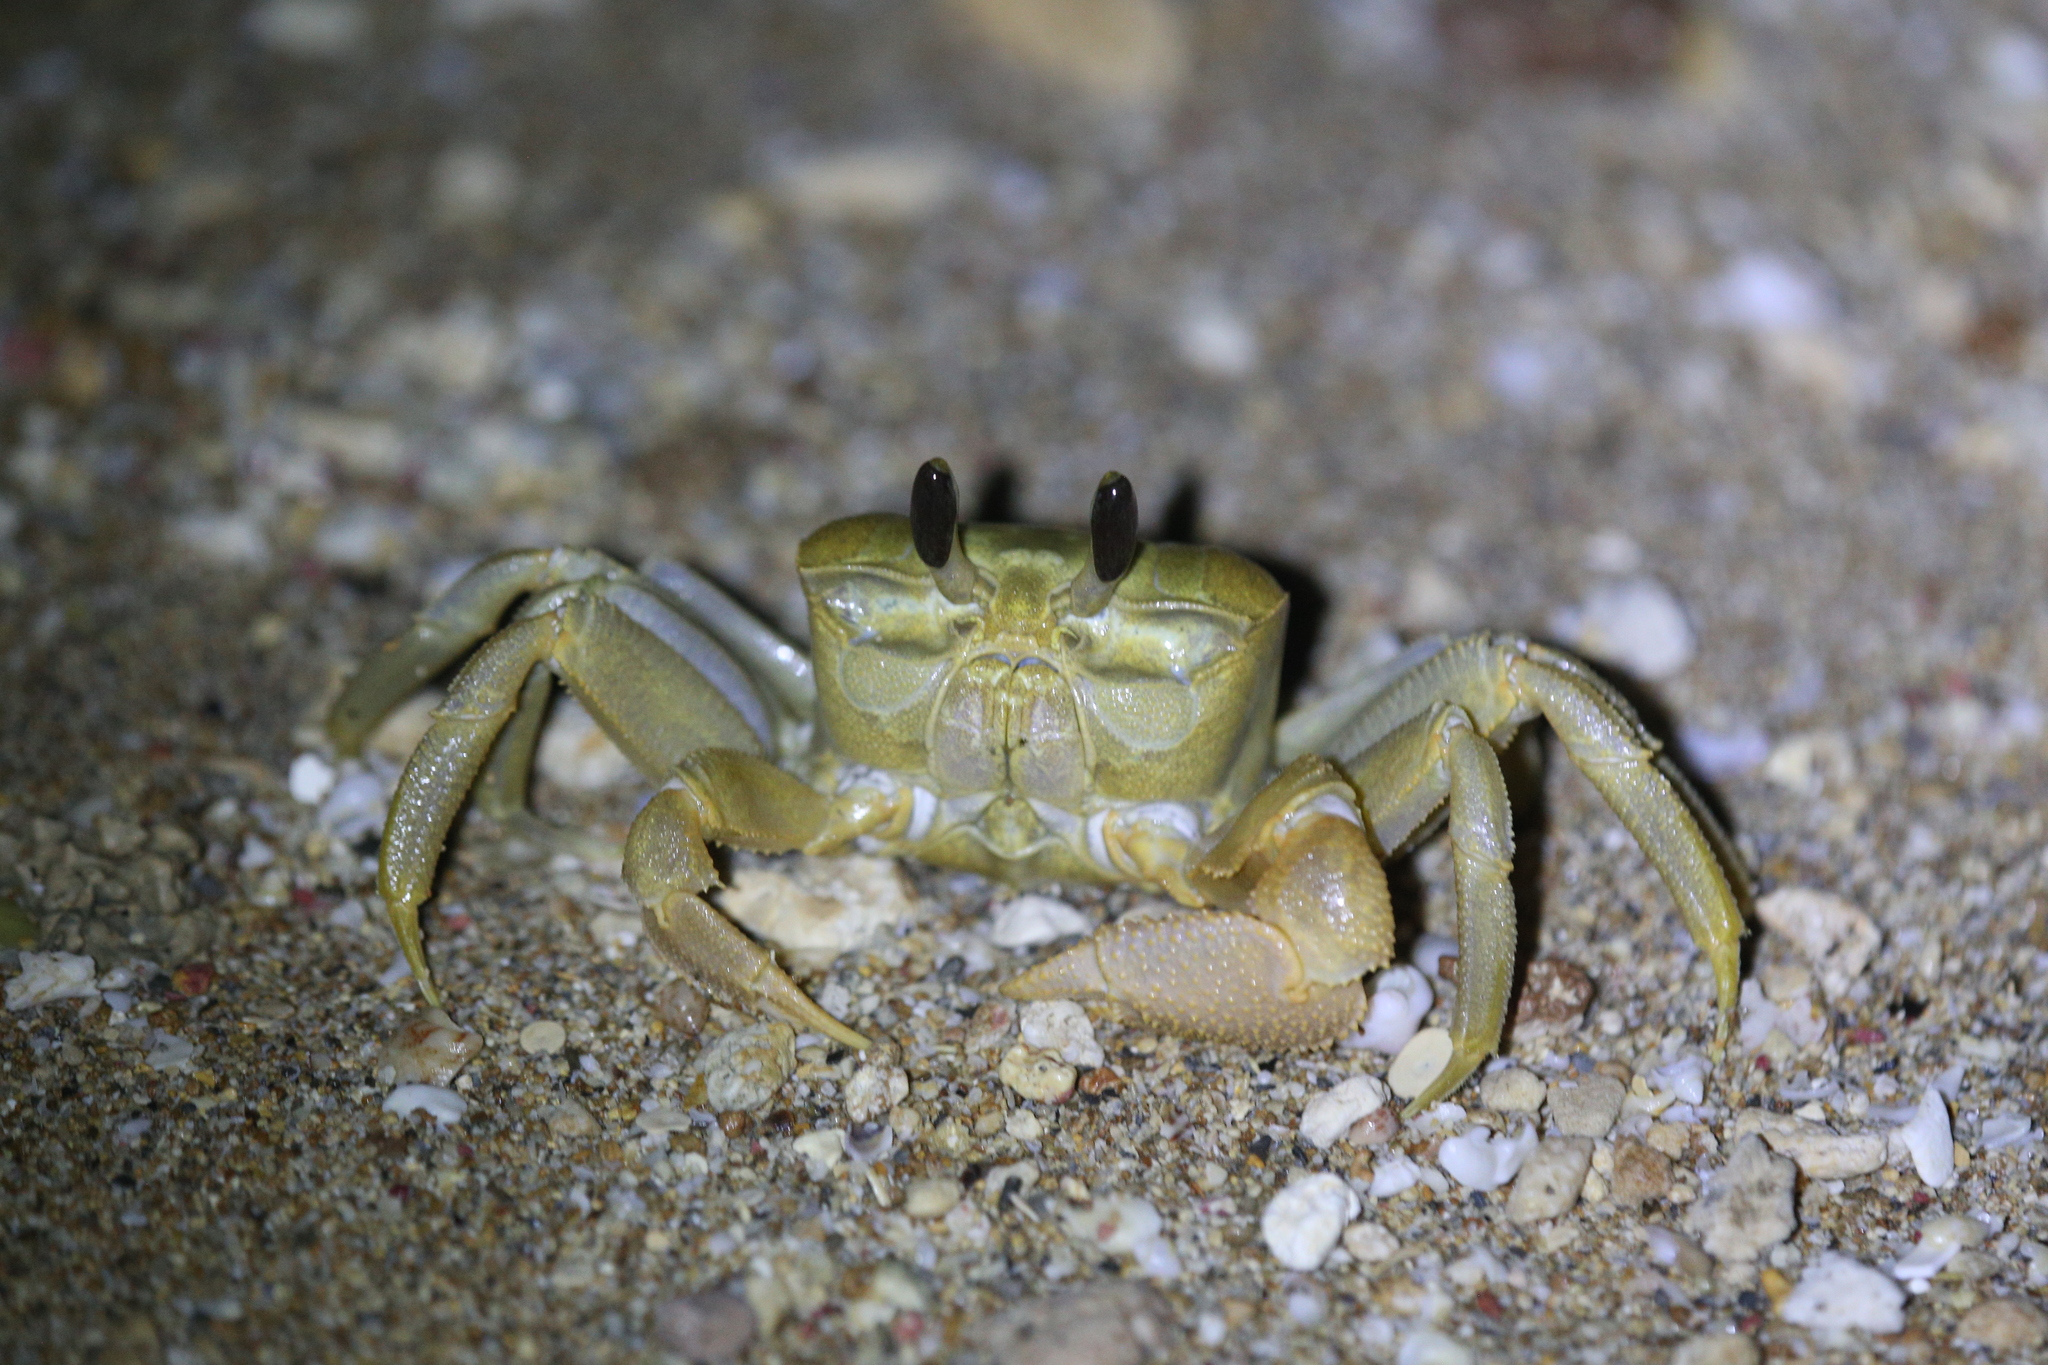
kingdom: Animalia
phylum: Arthropoda
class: Malacostraca
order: Decapoda
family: Ocypodidae
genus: Ocypode
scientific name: Ocypode convexa
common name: Golden ghost crab
